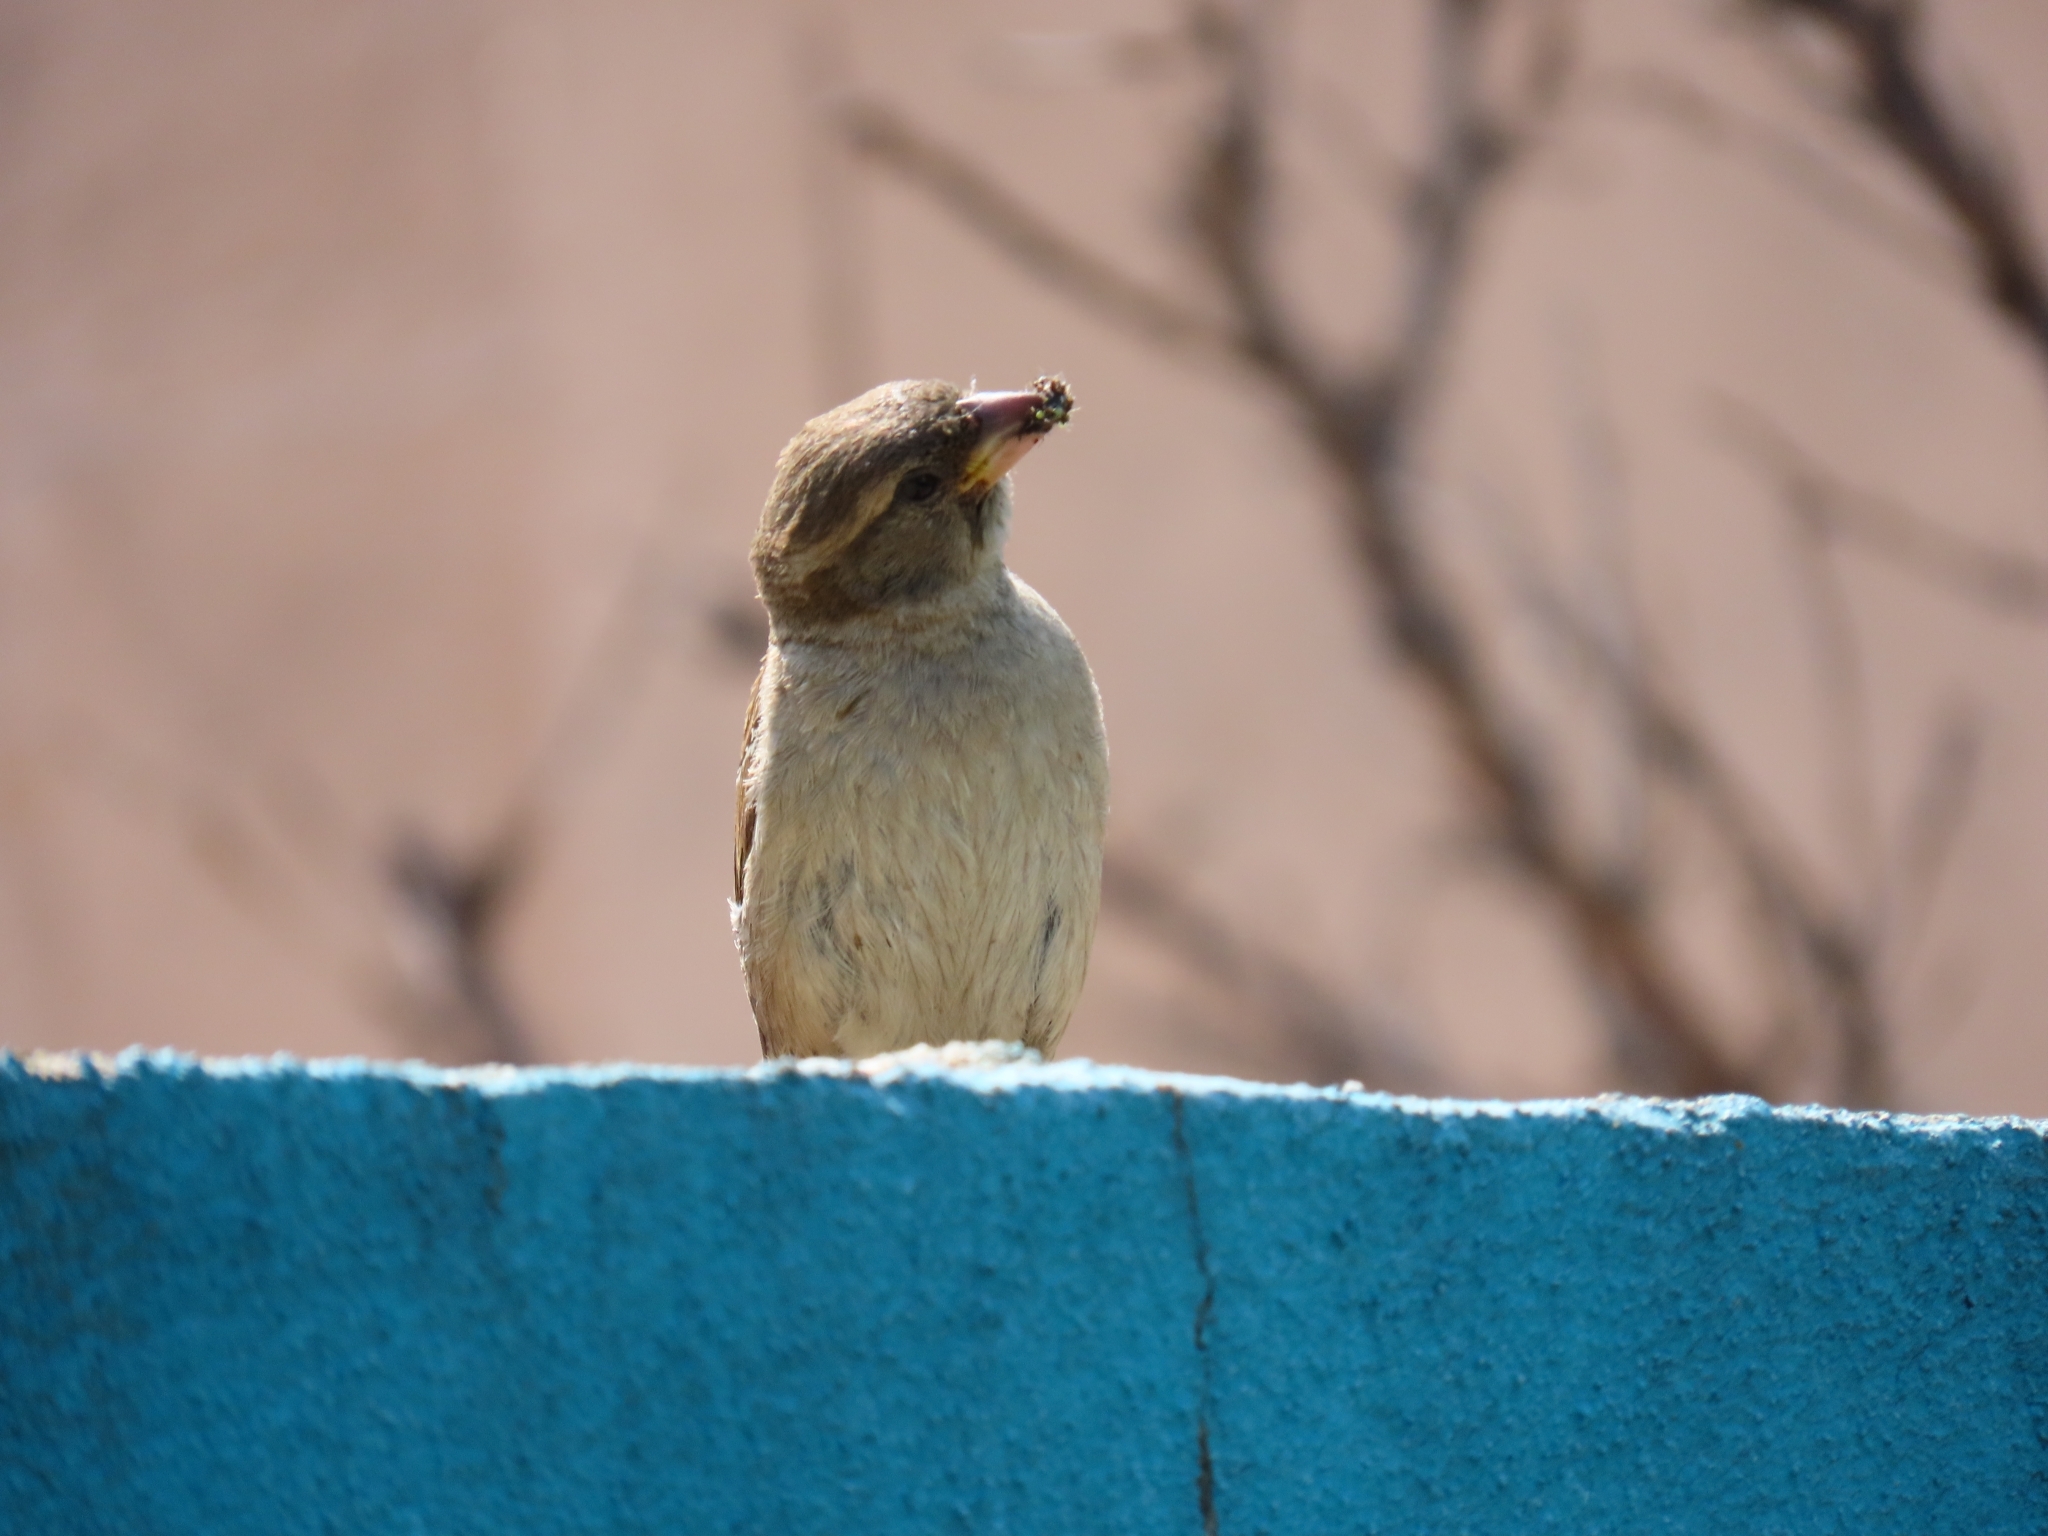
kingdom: Animalia
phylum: Chordata
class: Aves
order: Passeriformes
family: Passeridae
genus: Passer
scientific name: Passer domesticus
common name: House sparrow
